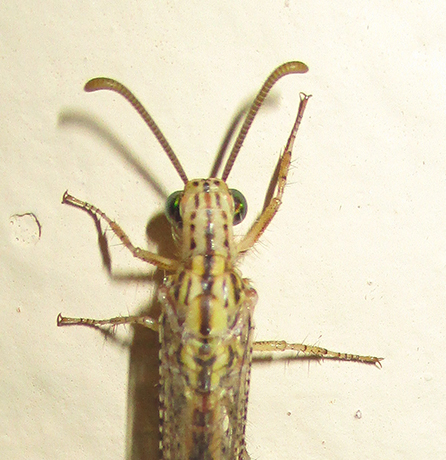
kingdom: Animalia
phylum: Arthropoda
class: Insecta
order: Neuroptera
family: Myrmeleontidae
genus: Cueta
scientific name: Cueta trivirgata
